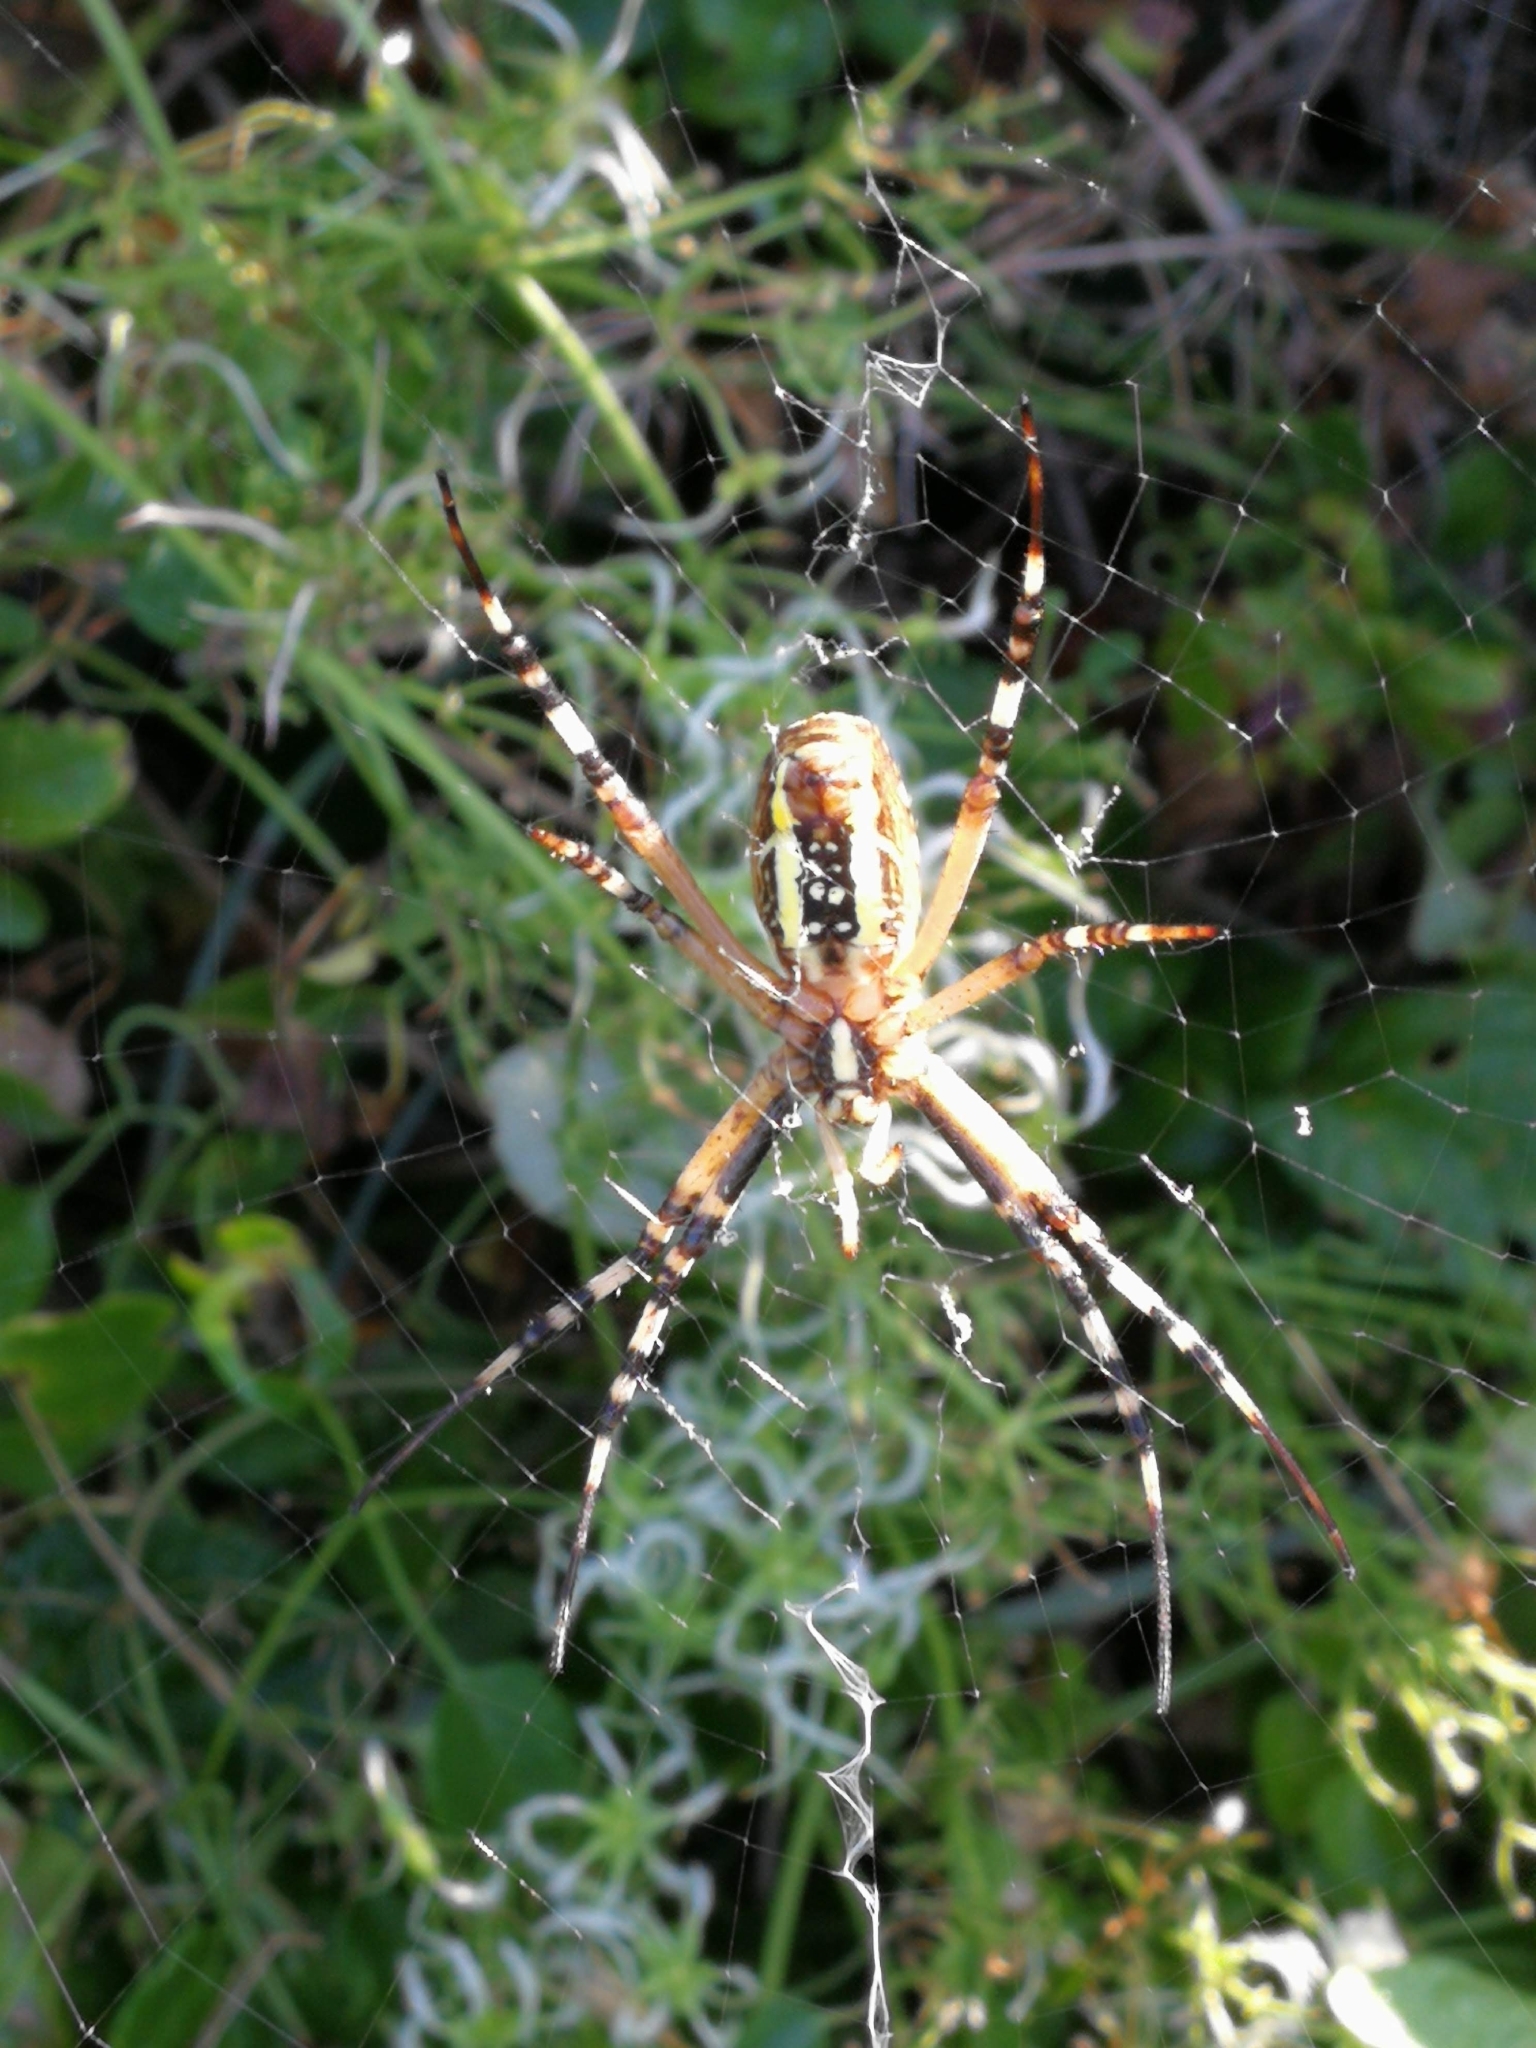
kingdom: Animalia
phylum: Arthropoda
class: Arachnida
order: Araneae
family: Araneidae
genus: Argiope
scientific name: Argiope bruennichi
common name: Wasp spider
